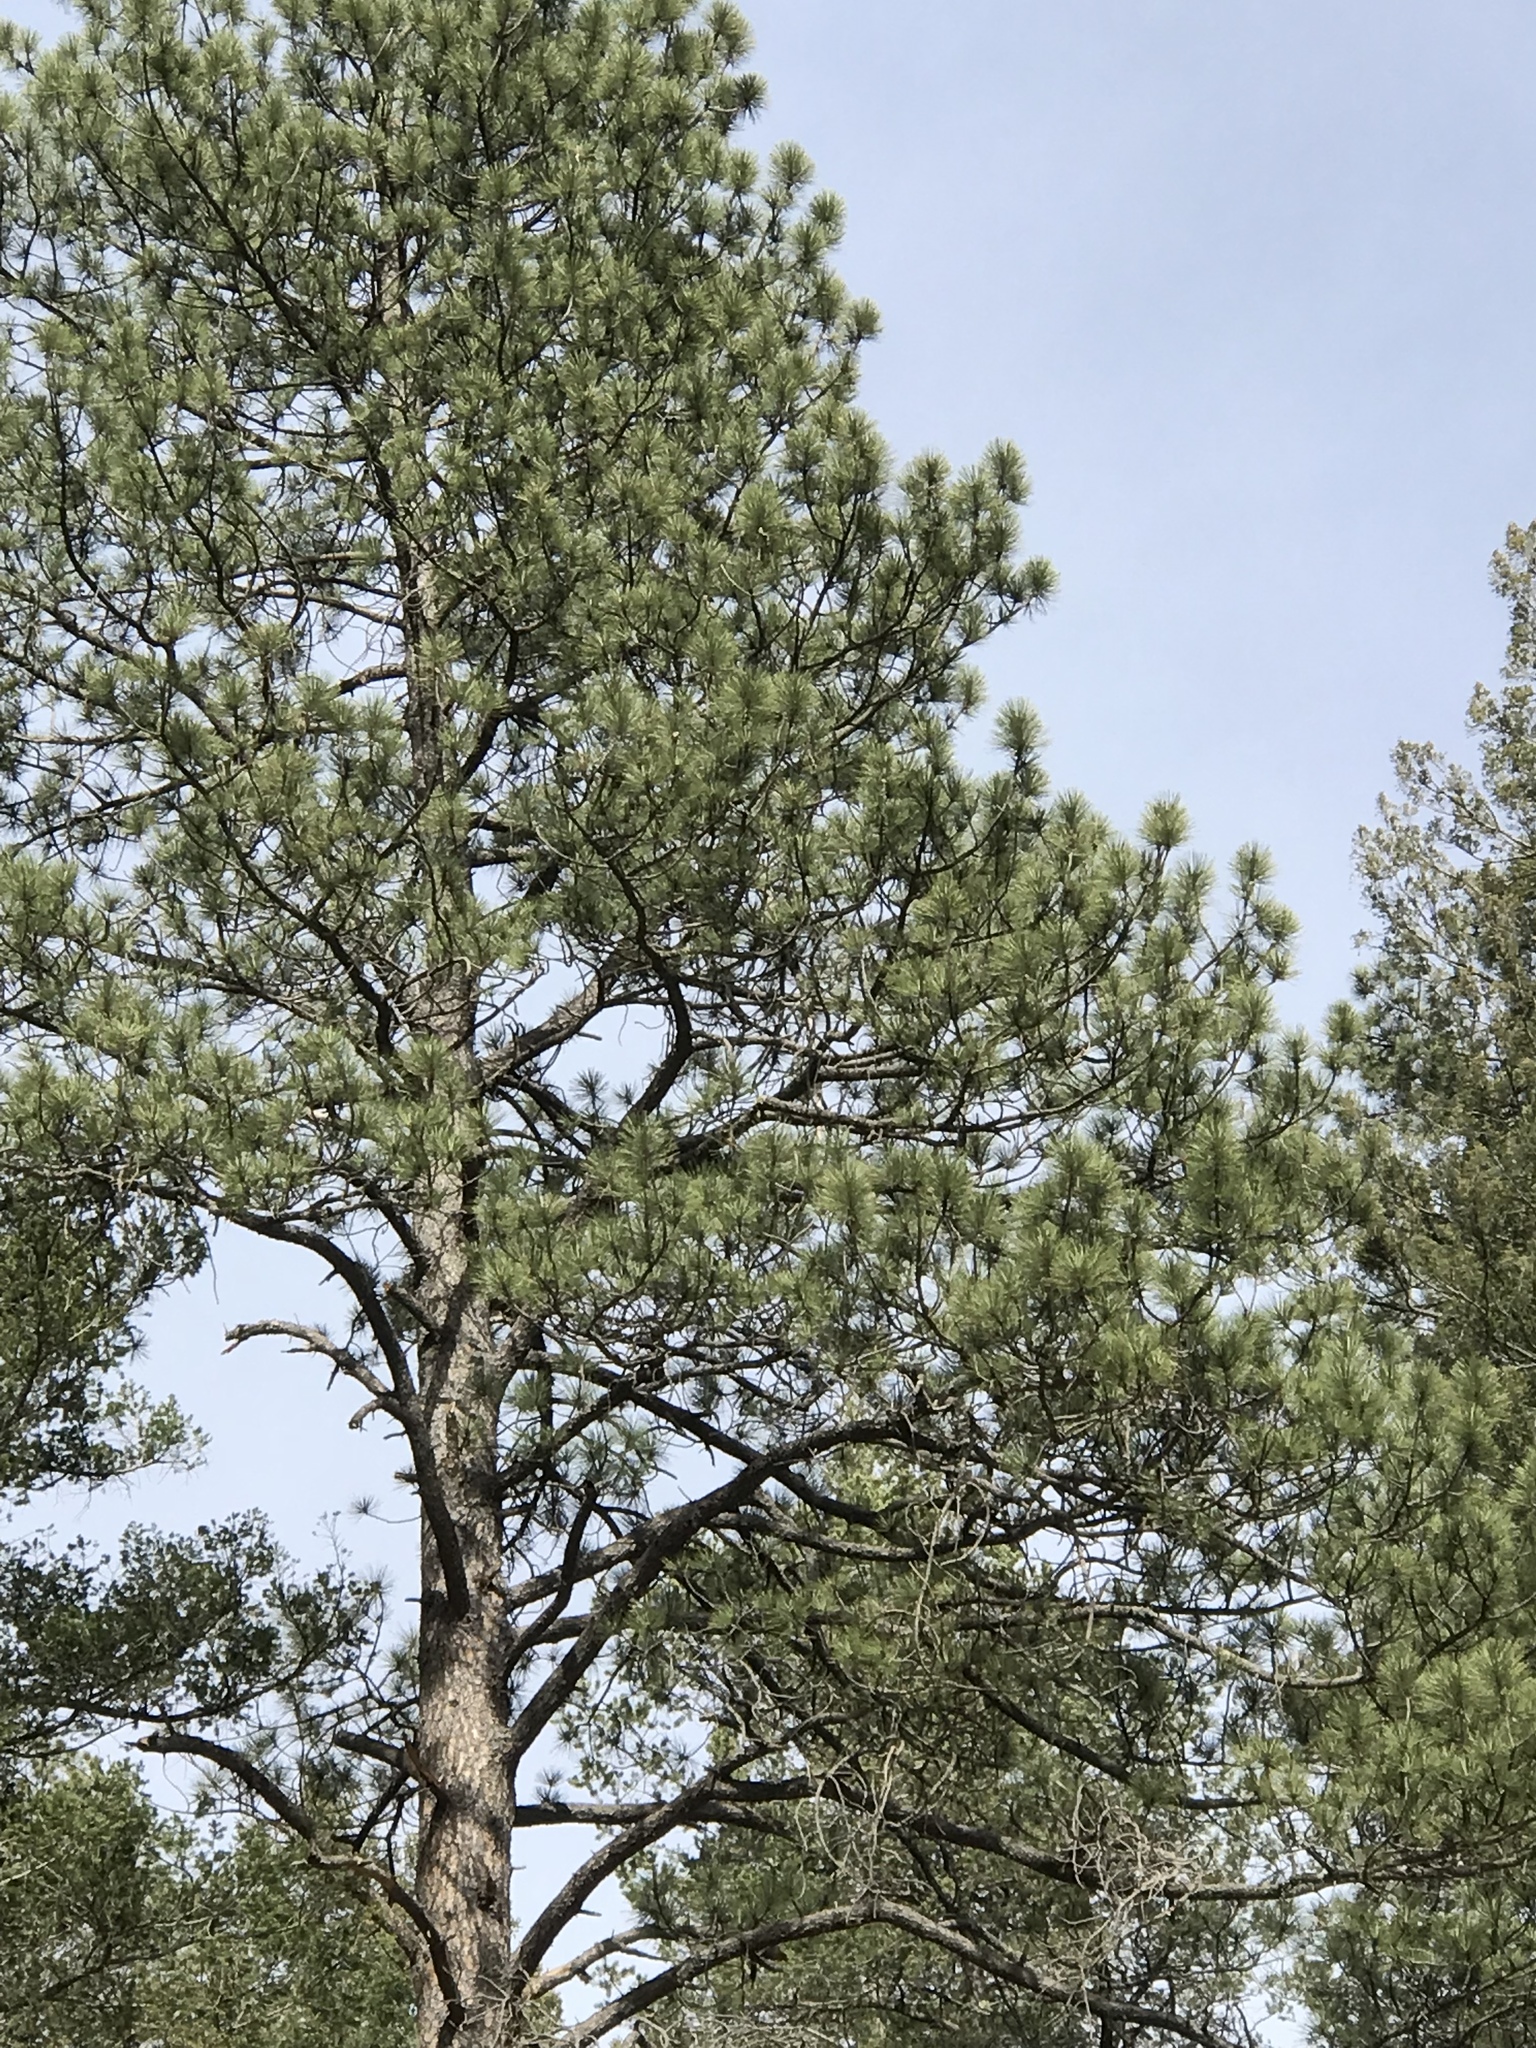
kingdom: Plantae
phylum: Tracheophyta
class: Pinopsida
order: Pinales
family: Pinaceae
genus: Pinus
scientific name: Pinus ponderosa
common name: Western yellow-pine
